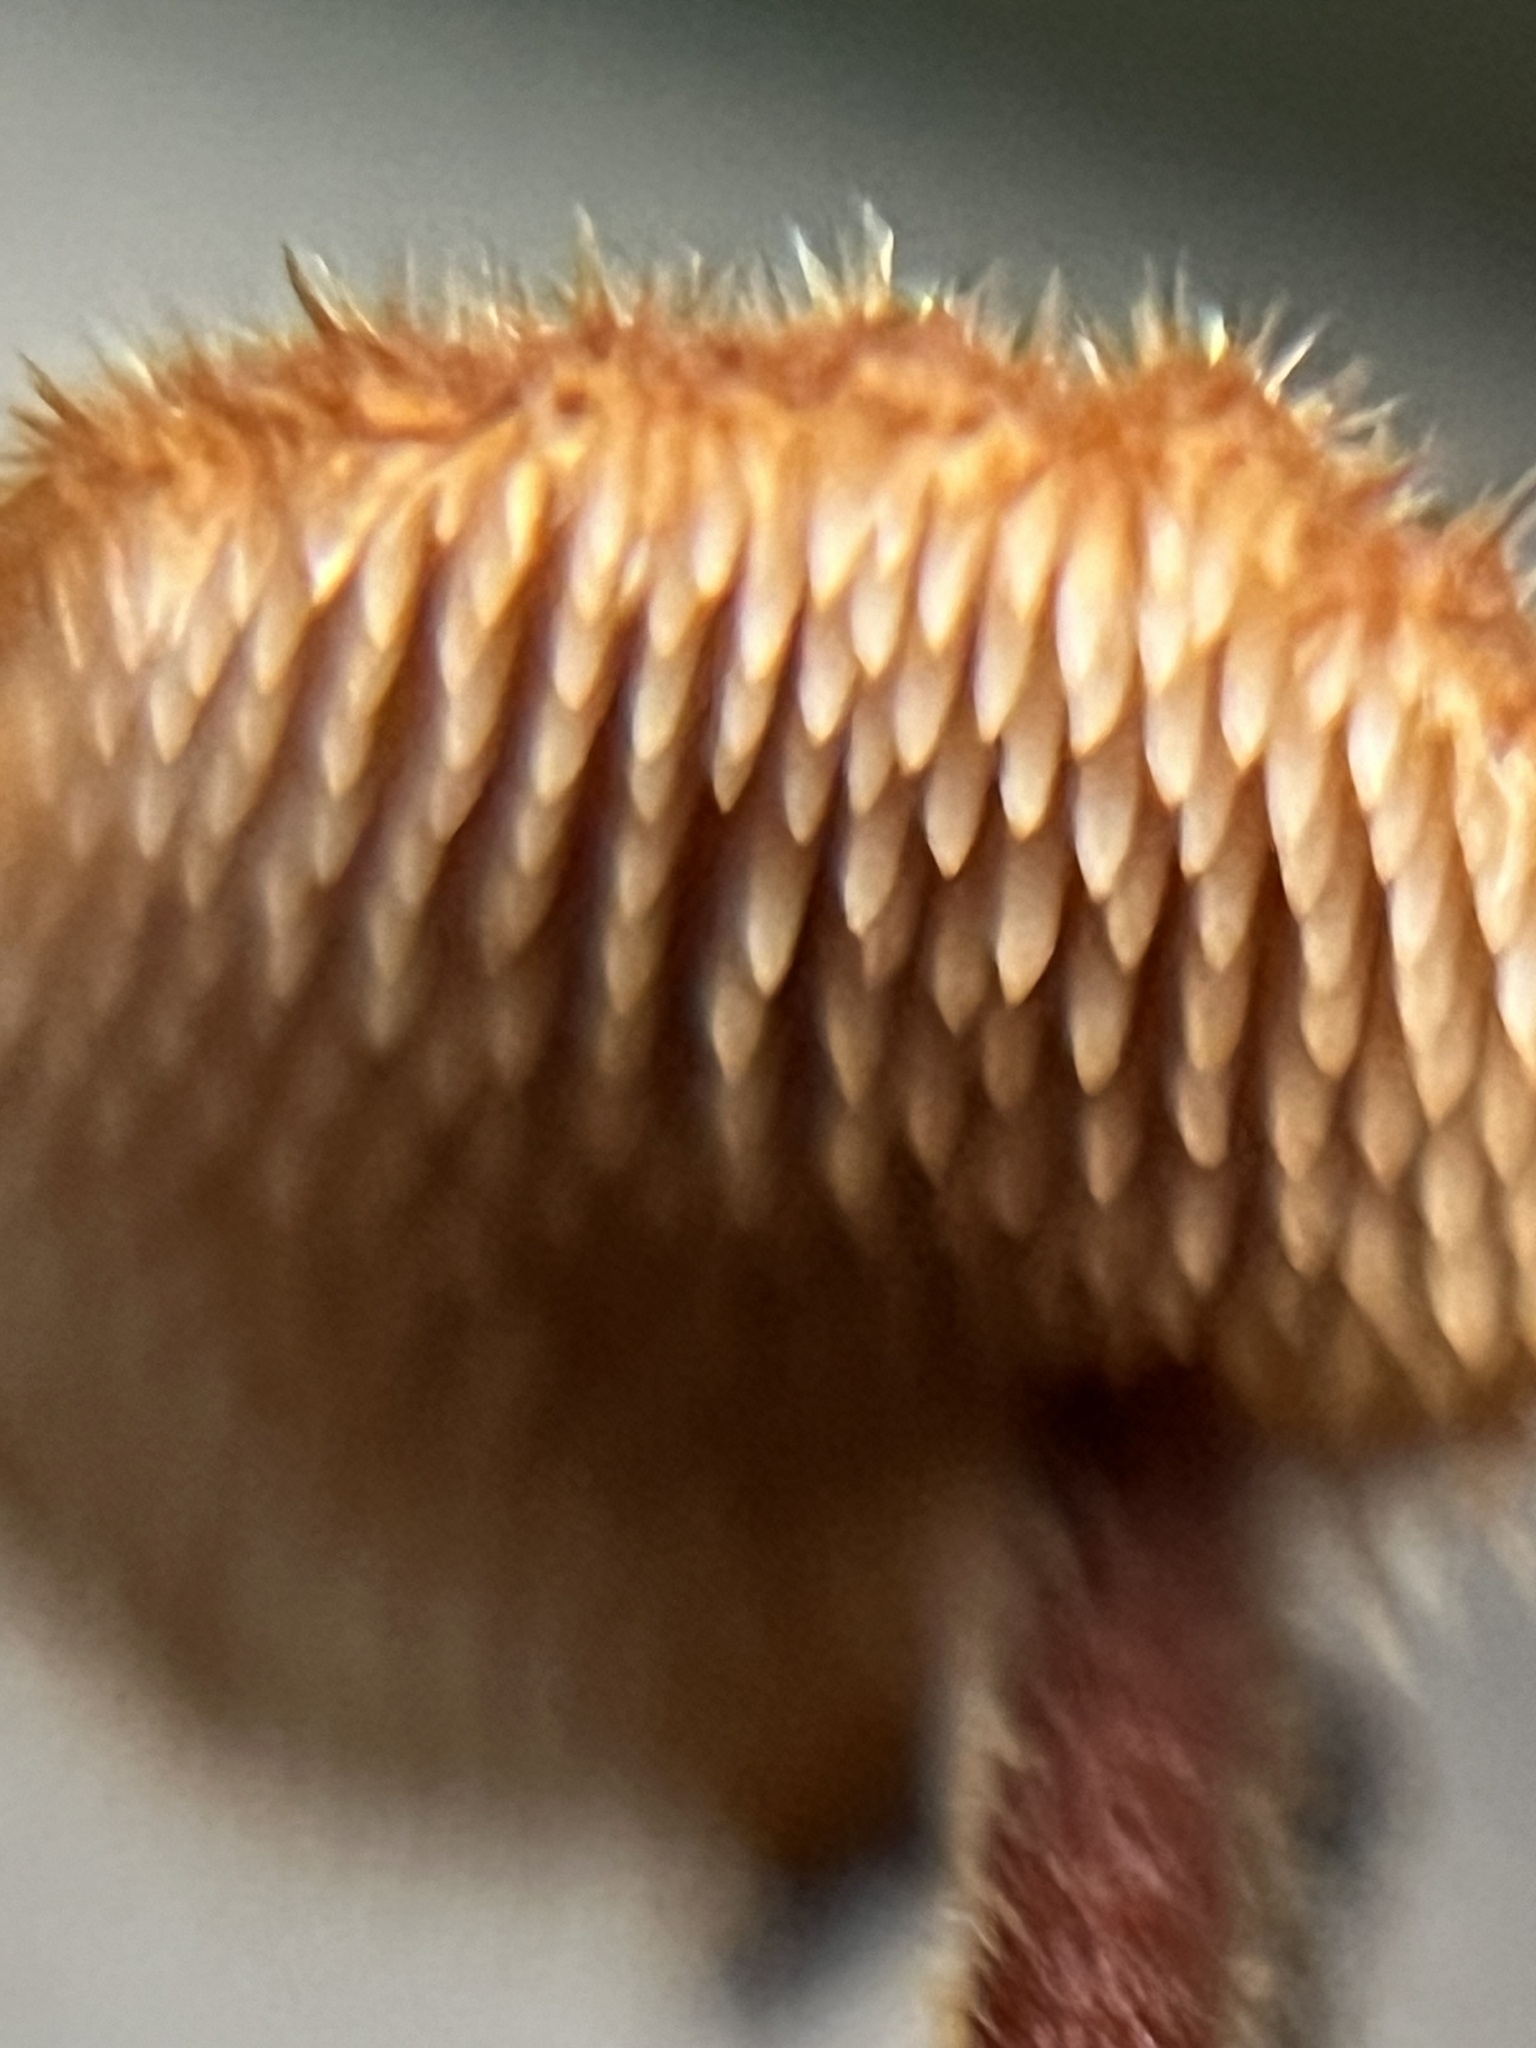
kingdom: Fungi
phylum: Basidiomycota
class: Agaricomycetes
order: Russulales
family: Auriscalpiaceae
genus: Auriscalpium
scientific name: Auriscalpium vulgare
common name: Earpick fungus
